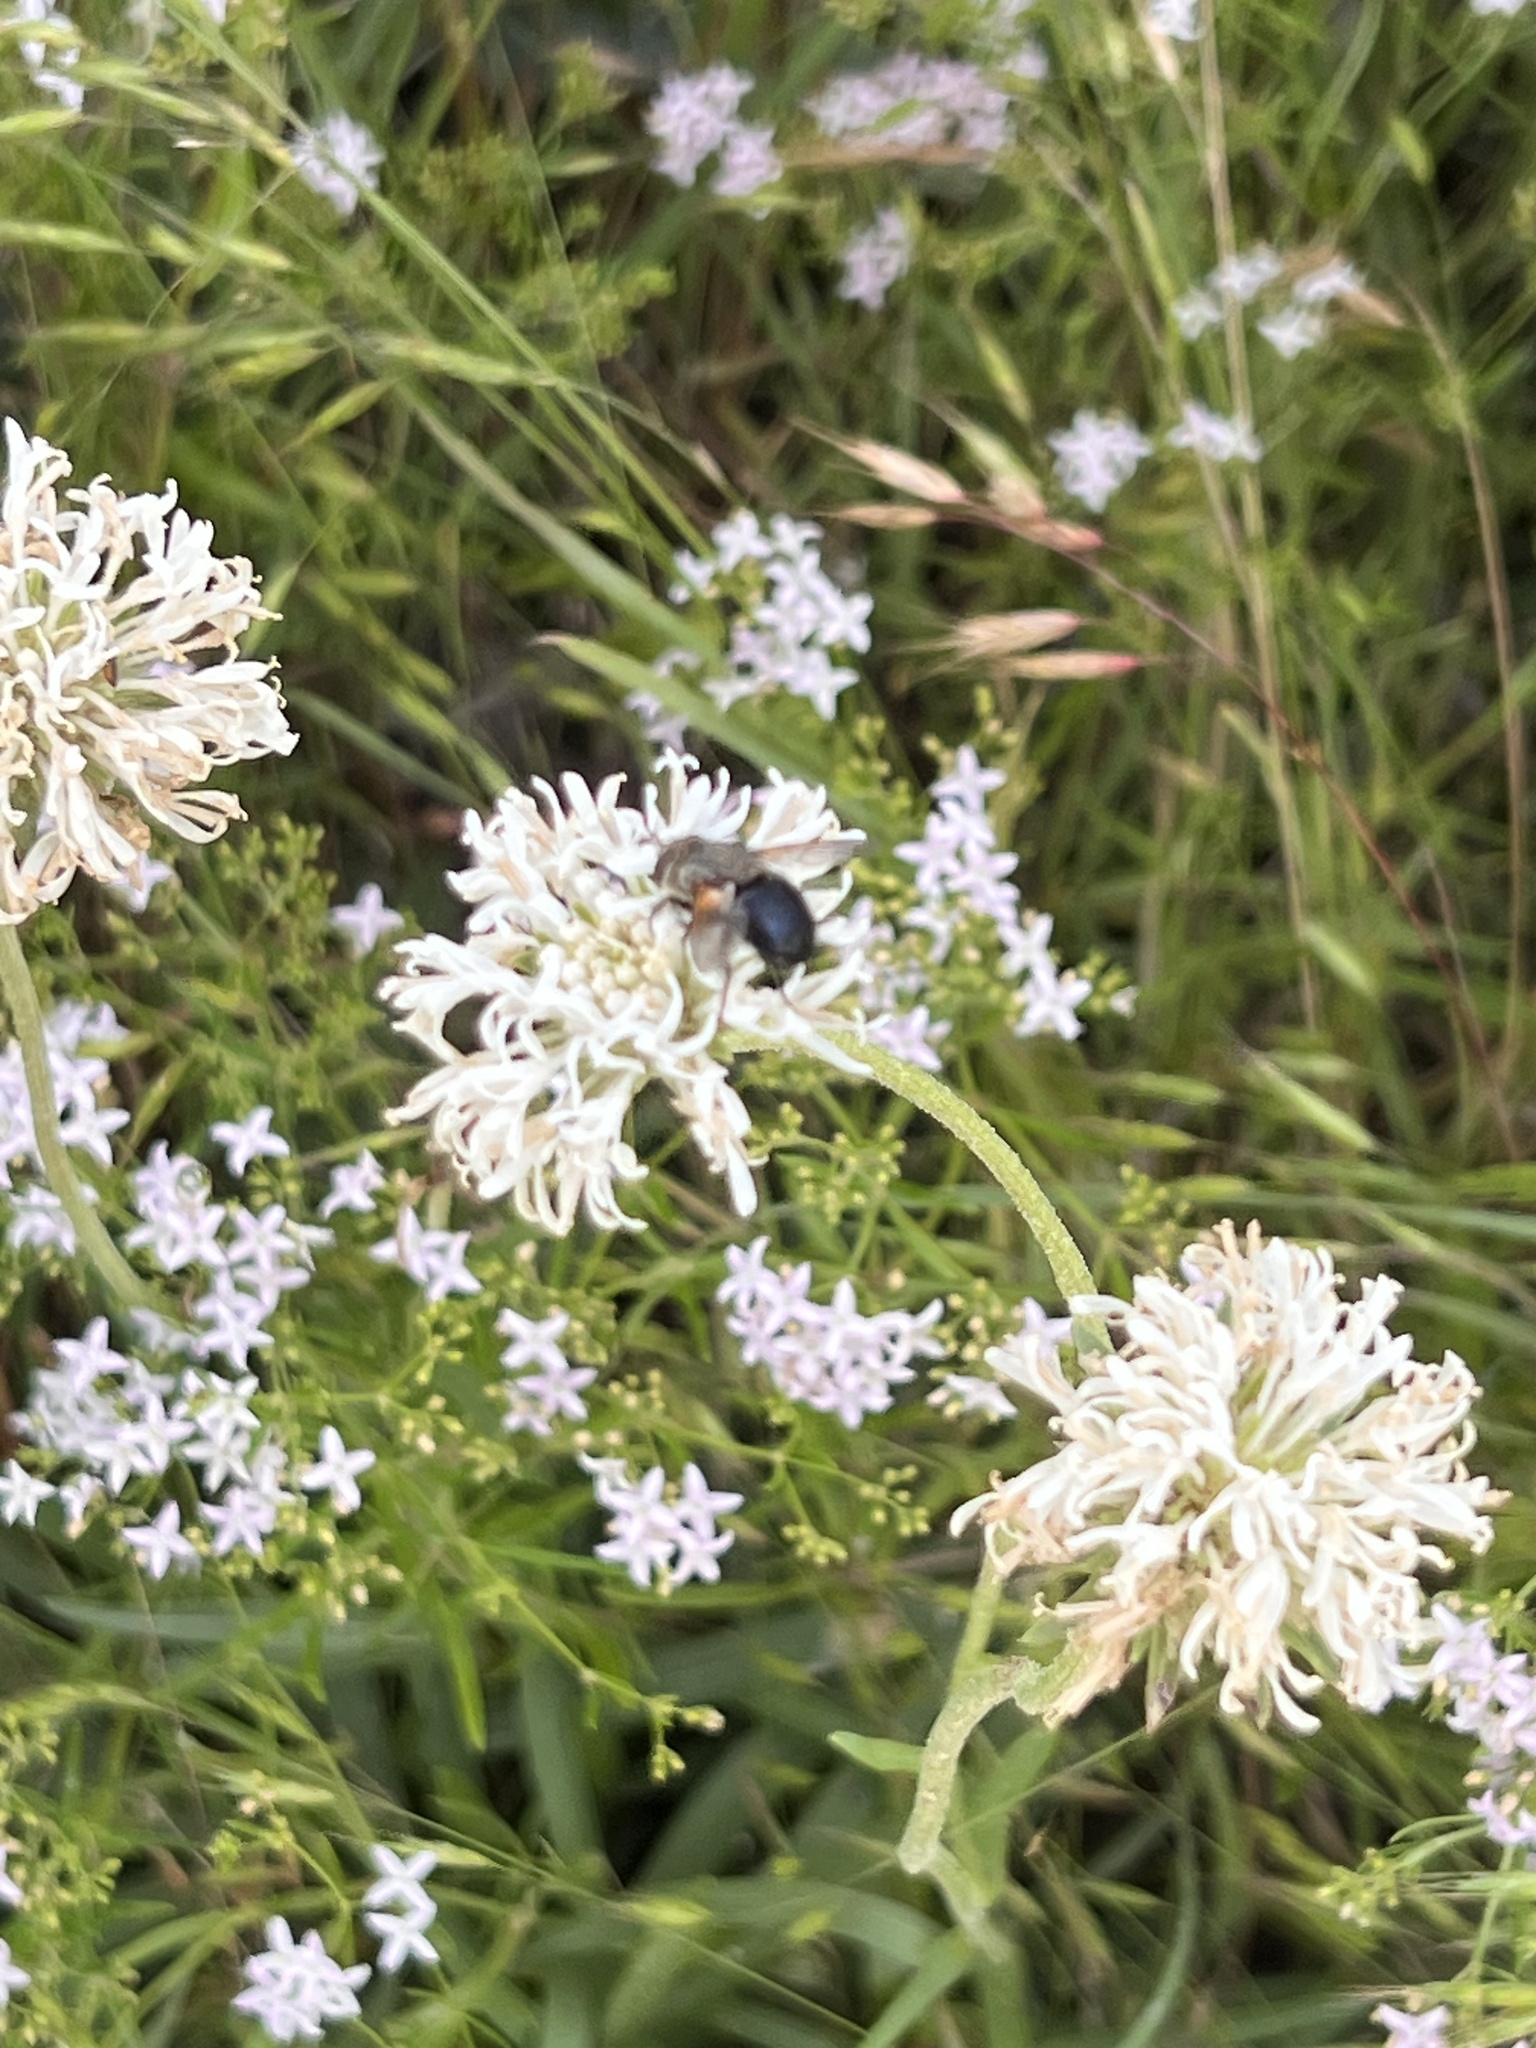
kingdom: Plantae
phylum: Tracheophyta
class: Magnoliopsida
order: Asterales
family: Asteraceae
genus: Marshallia
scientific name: Marshallia caespitosa
